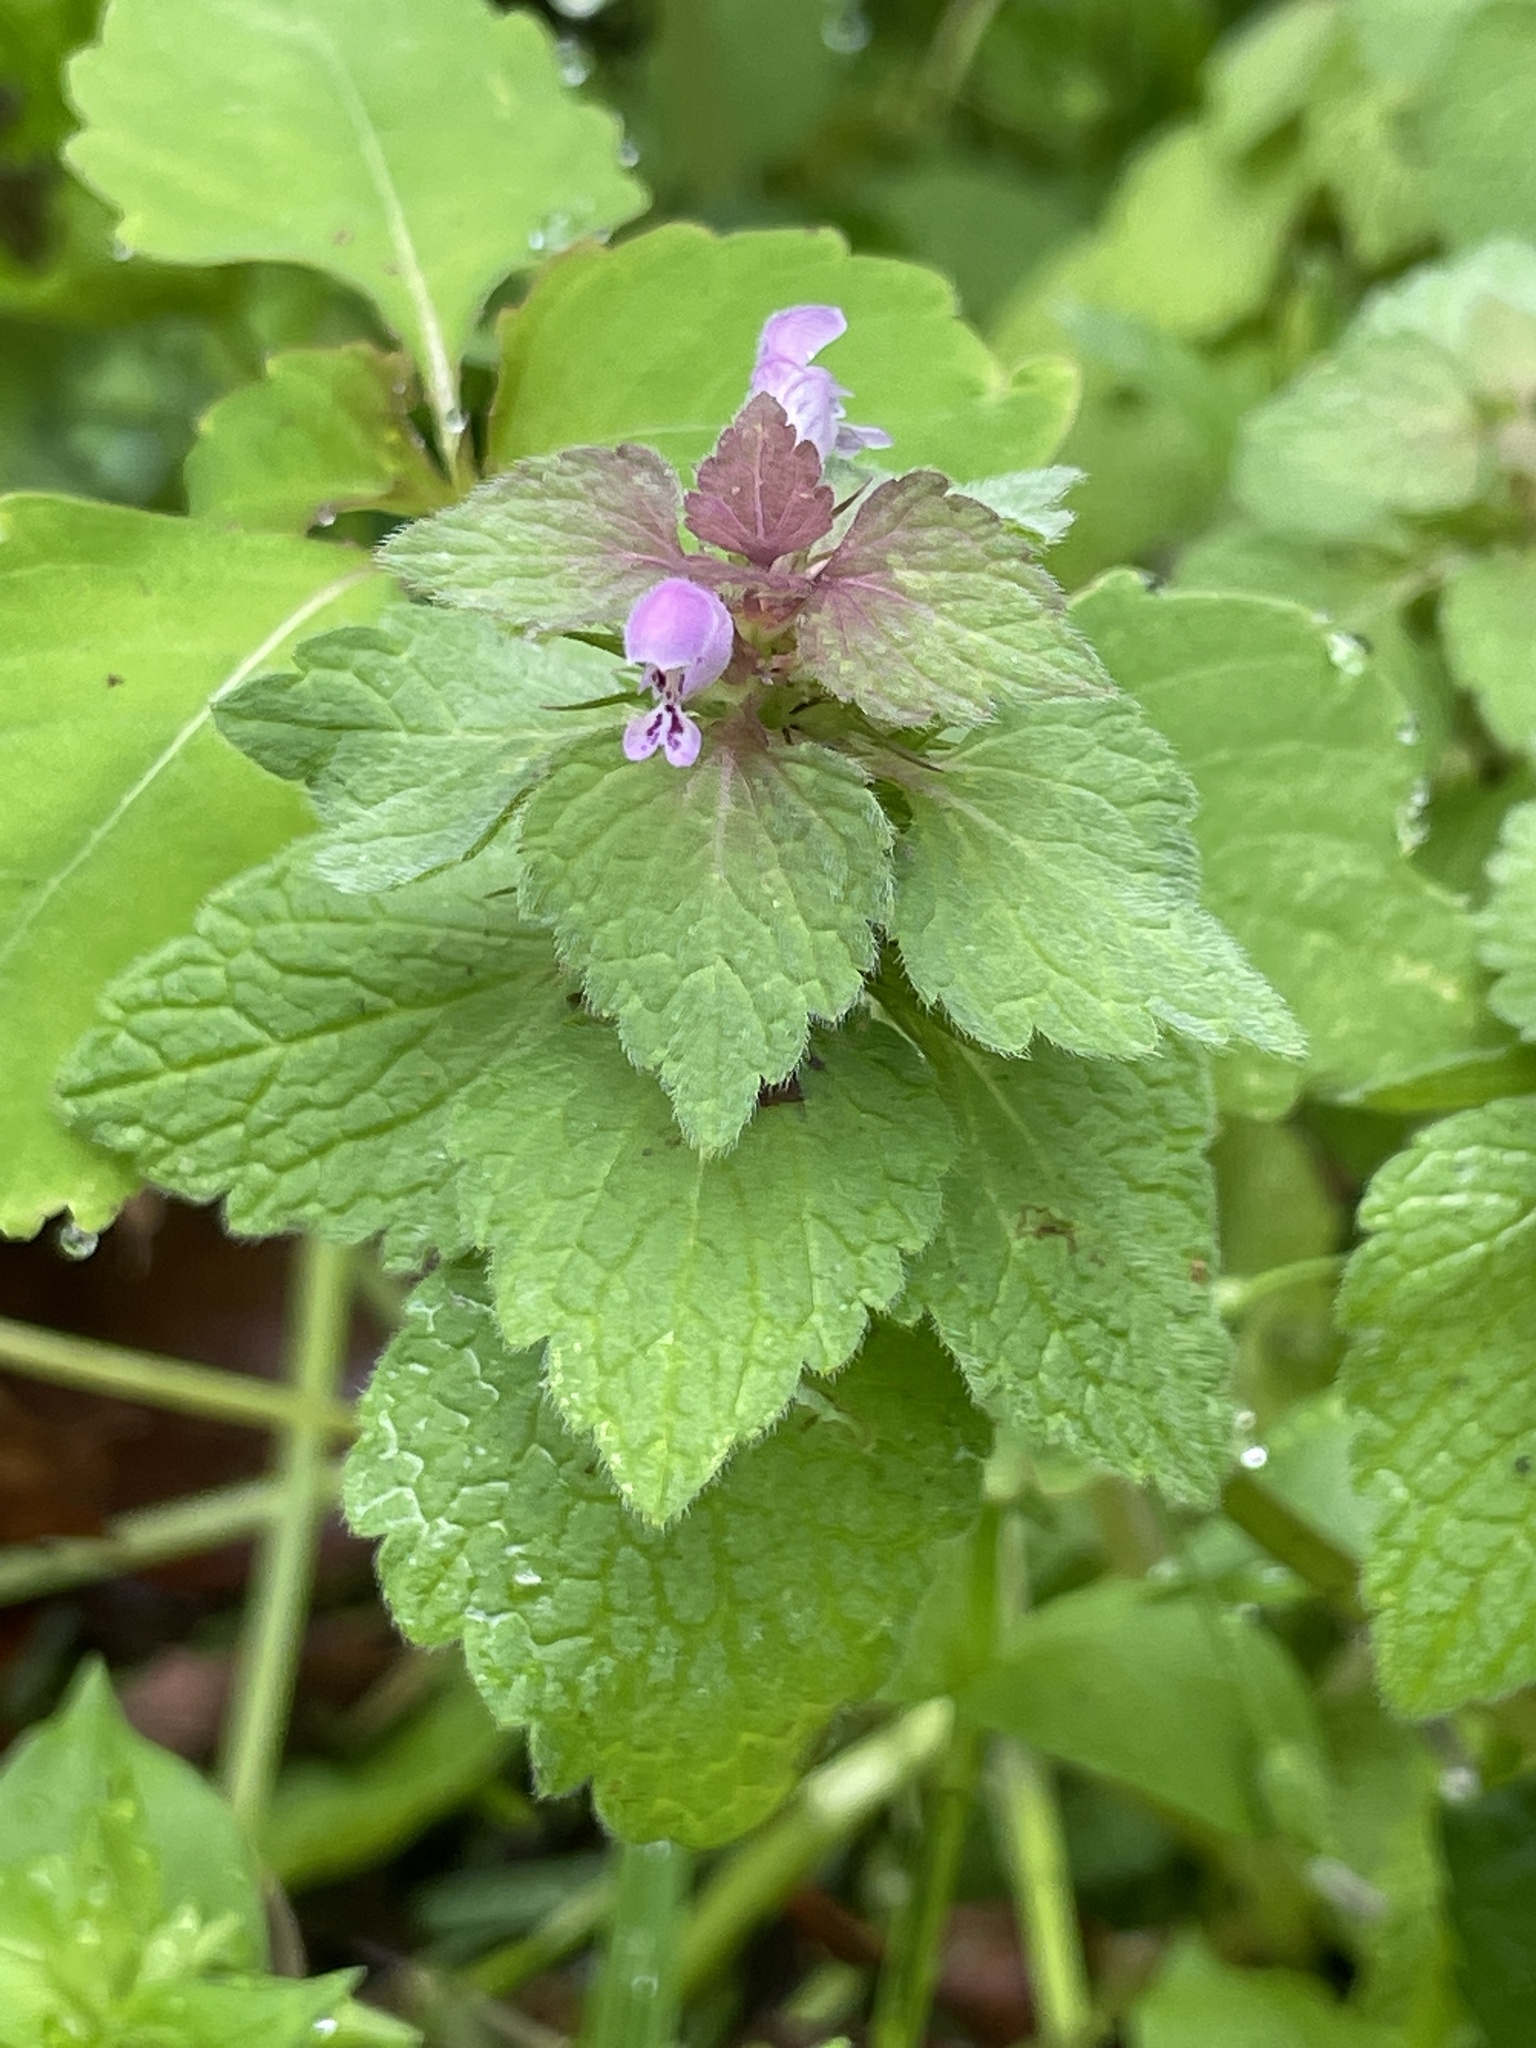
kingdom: Plantae
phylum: Tracheophyta
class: Magnoliopsida
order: Lamiales
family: Lamiaceae
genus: Lamium
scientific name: Lamium purpureum
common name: Red dead-nettle
